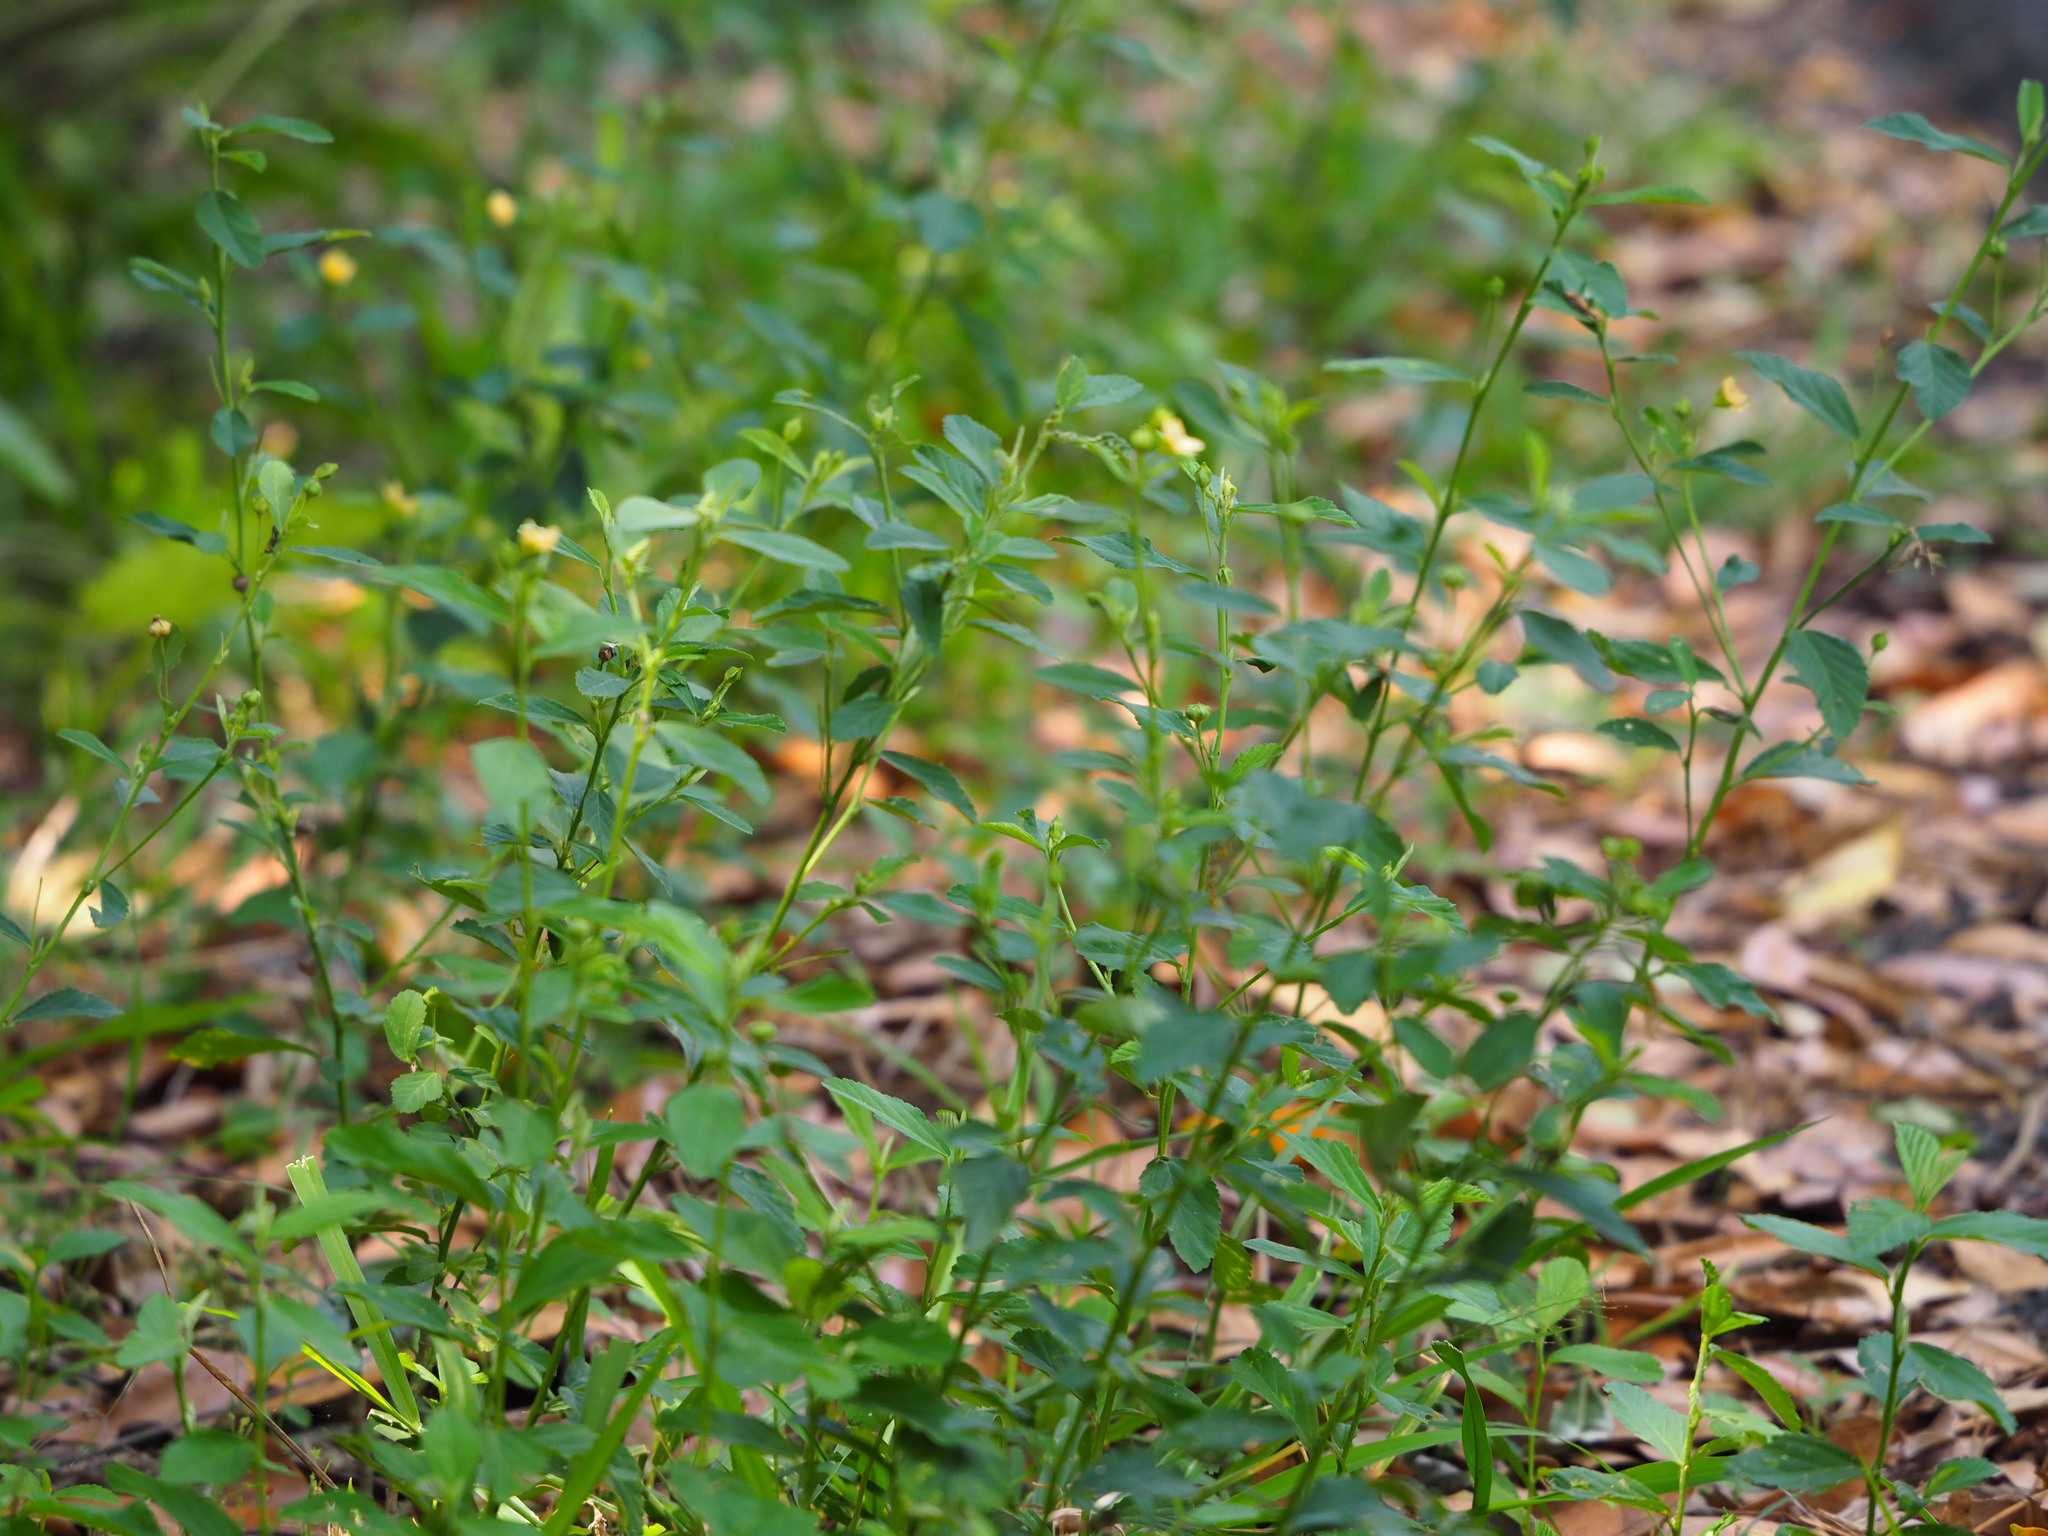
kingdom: Plantae
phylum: Tracheophyta
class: Magnoliopsida
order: Malvales
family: Malvaceae
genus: Sida
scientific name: Sida rhombifolia
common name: Queensland-hemp
